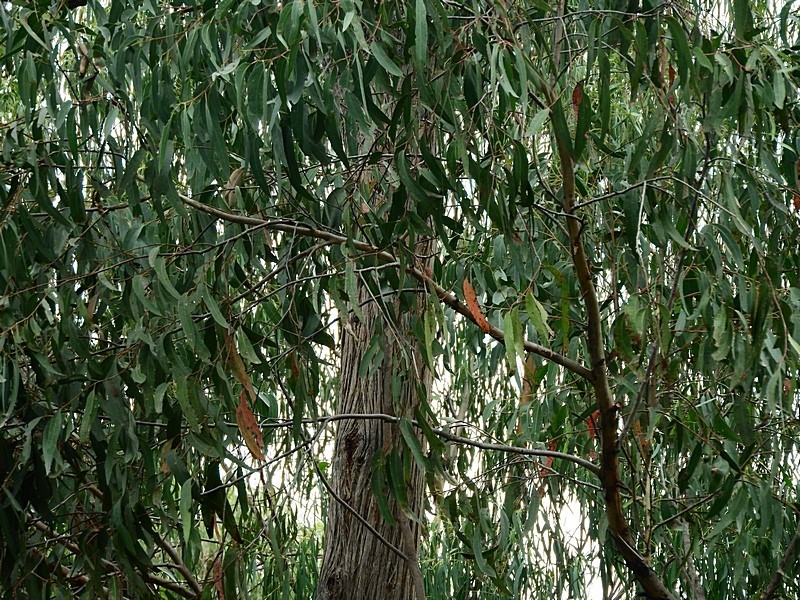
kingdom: Plantae
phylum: Tracheophyta
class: Magnoliopsida
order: Myrtales
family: Myrtaceae
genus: Eucalyptus
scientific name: Eucalyptus agglomerata
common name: Blue-leaved stringybark
